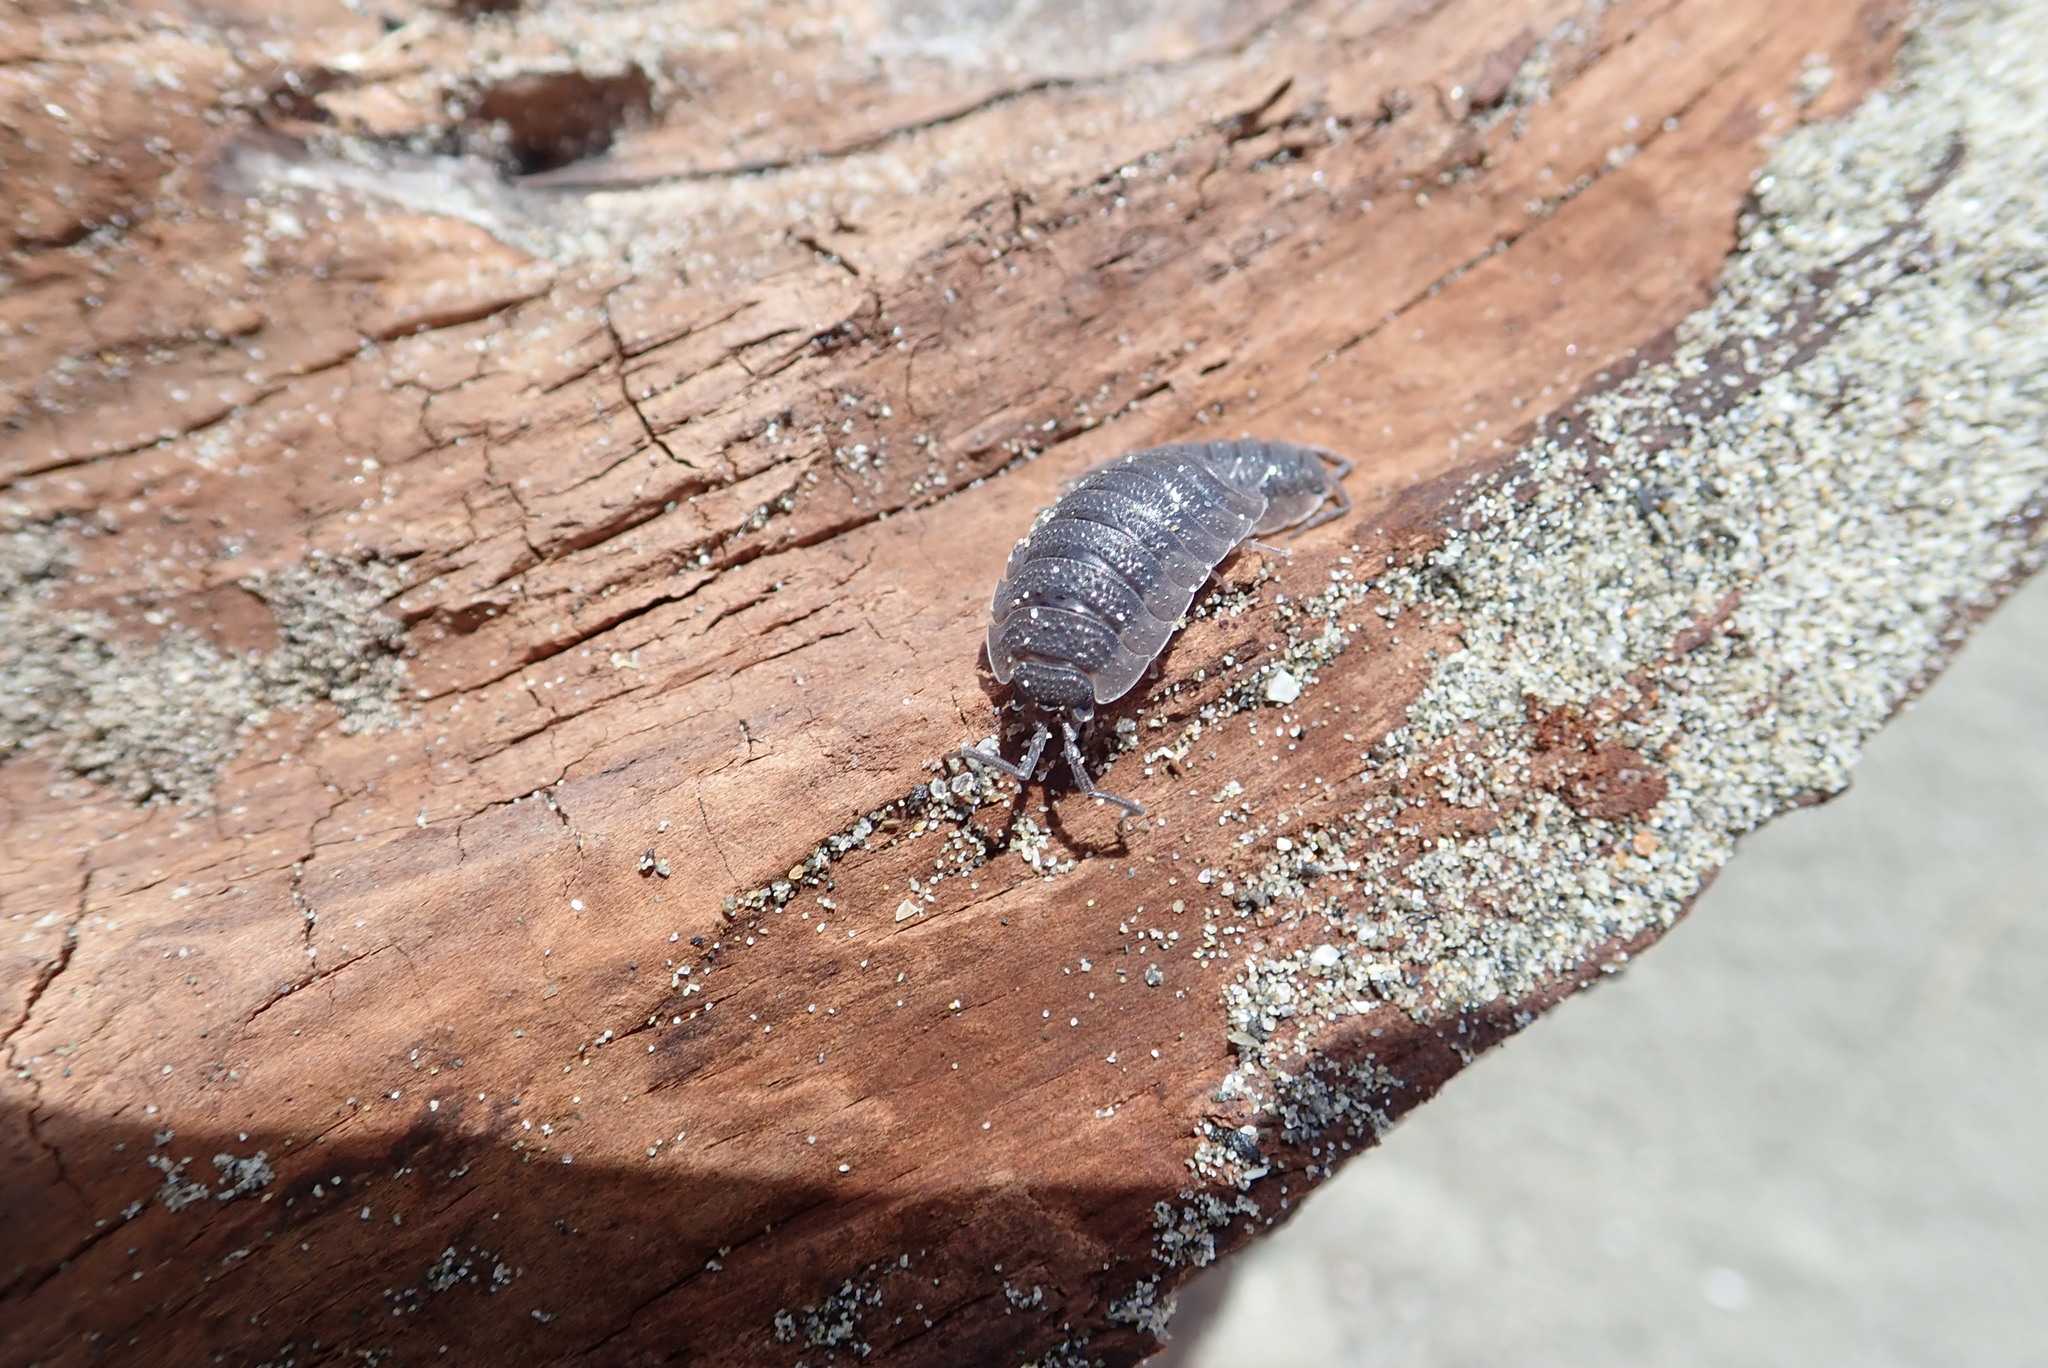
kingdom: Animalia
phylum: Arthropoda
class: Malacostraca
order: Isopoda
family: Porcellionidae
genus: Porcellio
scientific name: Porcellio scaber
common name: Common rough woodlouse
